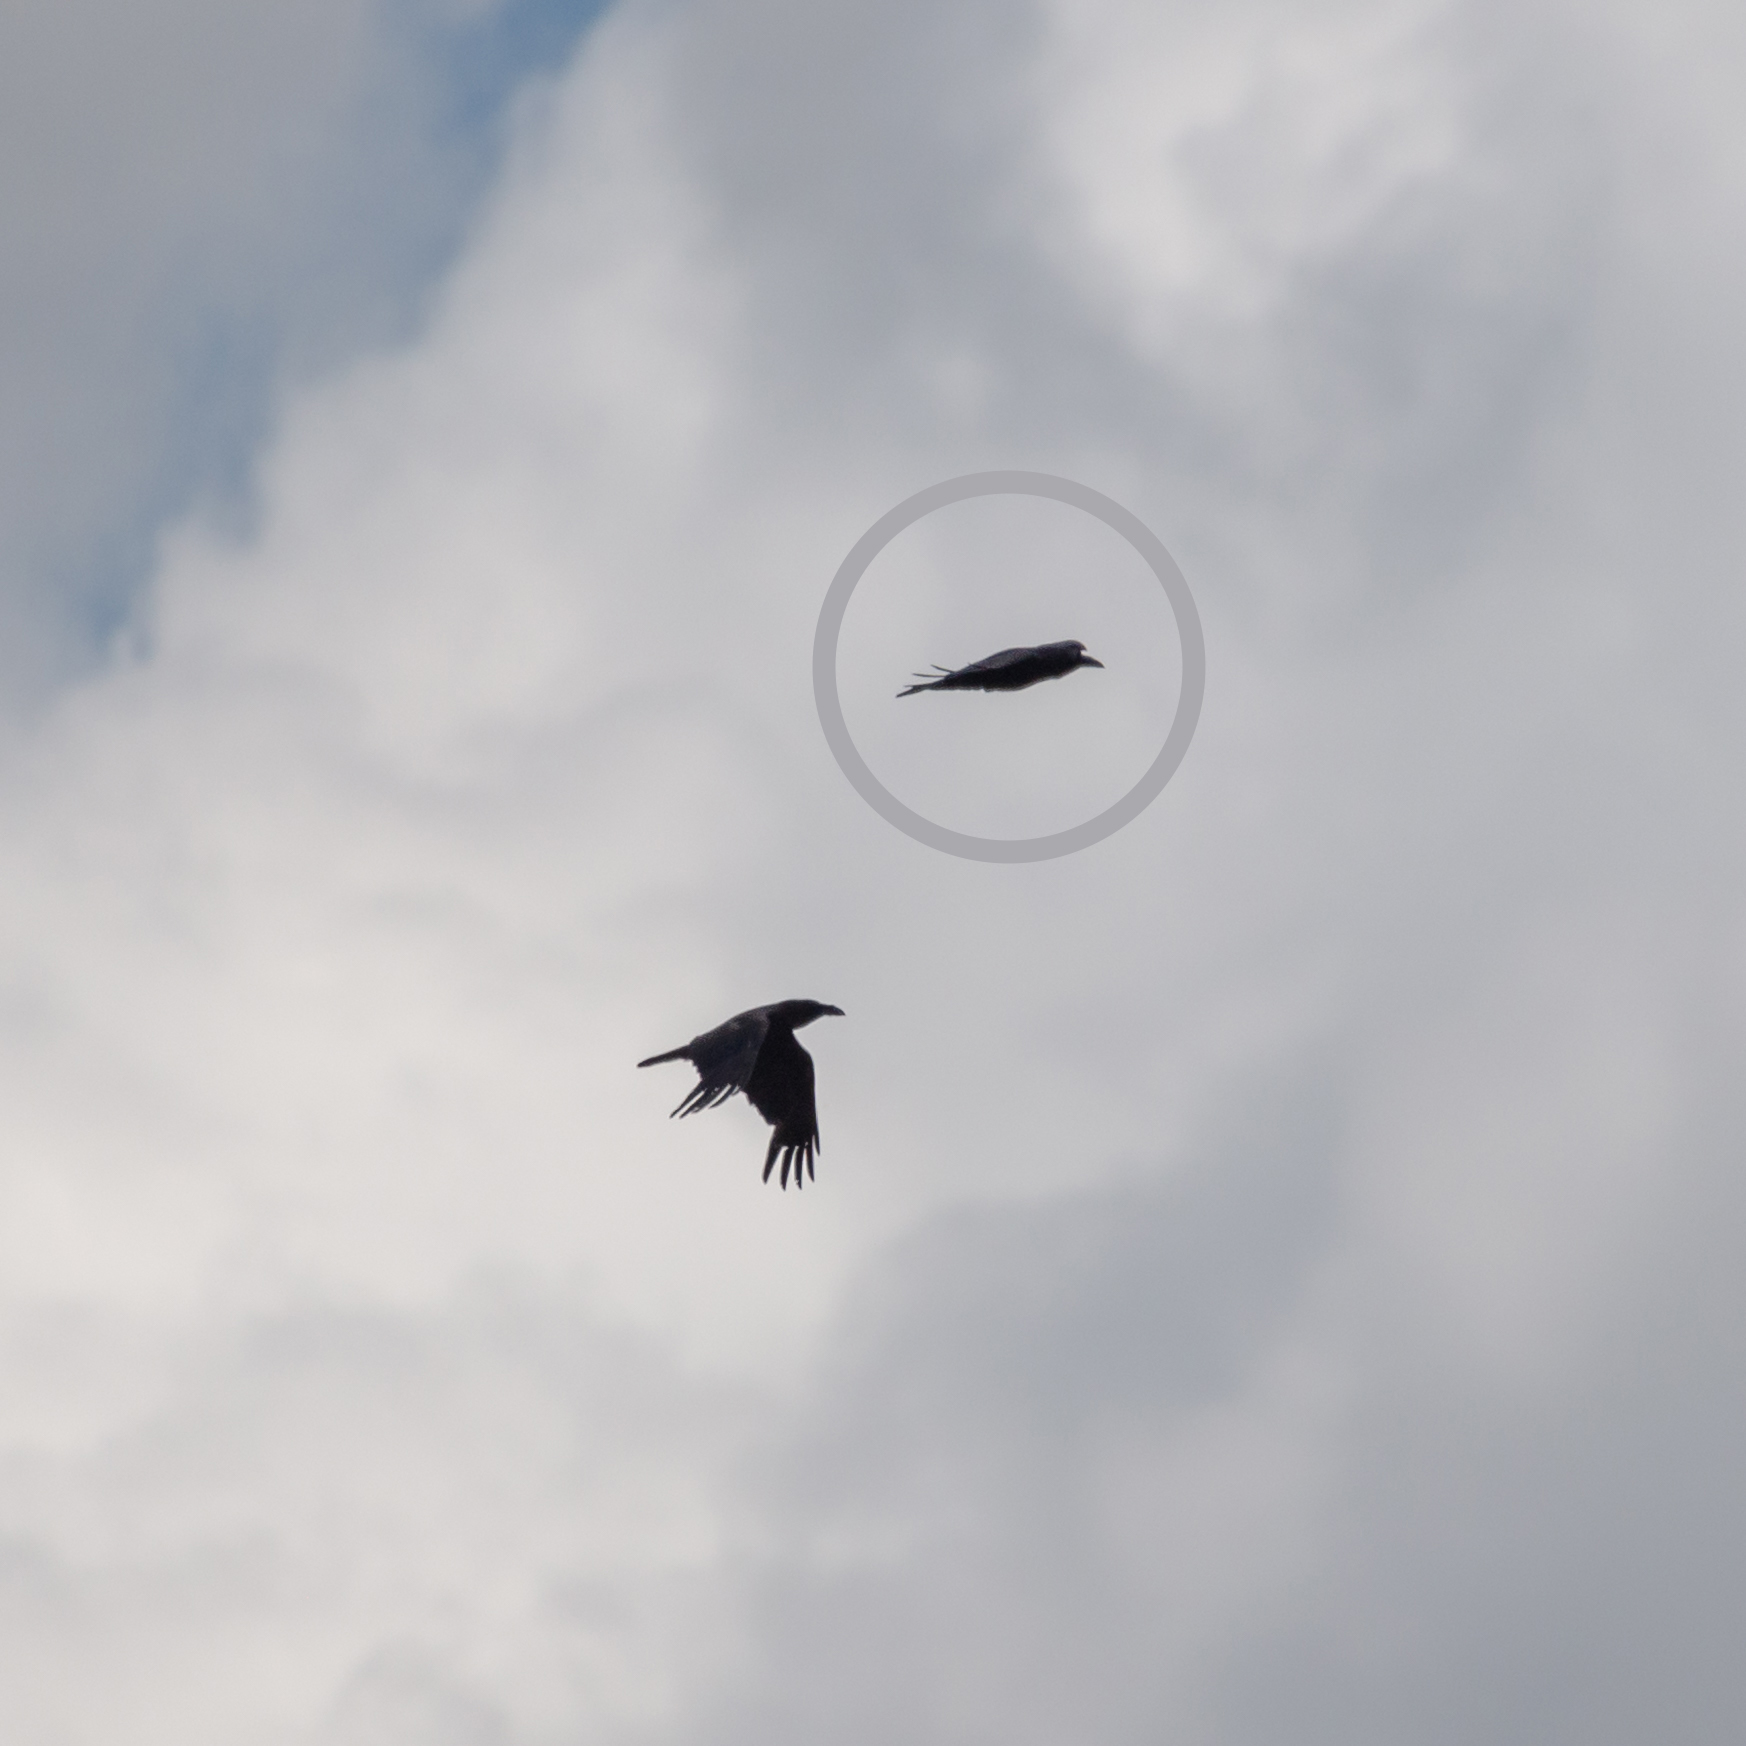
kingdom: Animalia
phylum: Chordata
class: Aves
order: Passeriformes
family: Corvidae
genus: Corvus
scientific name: Corvus corax
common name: Common raven
